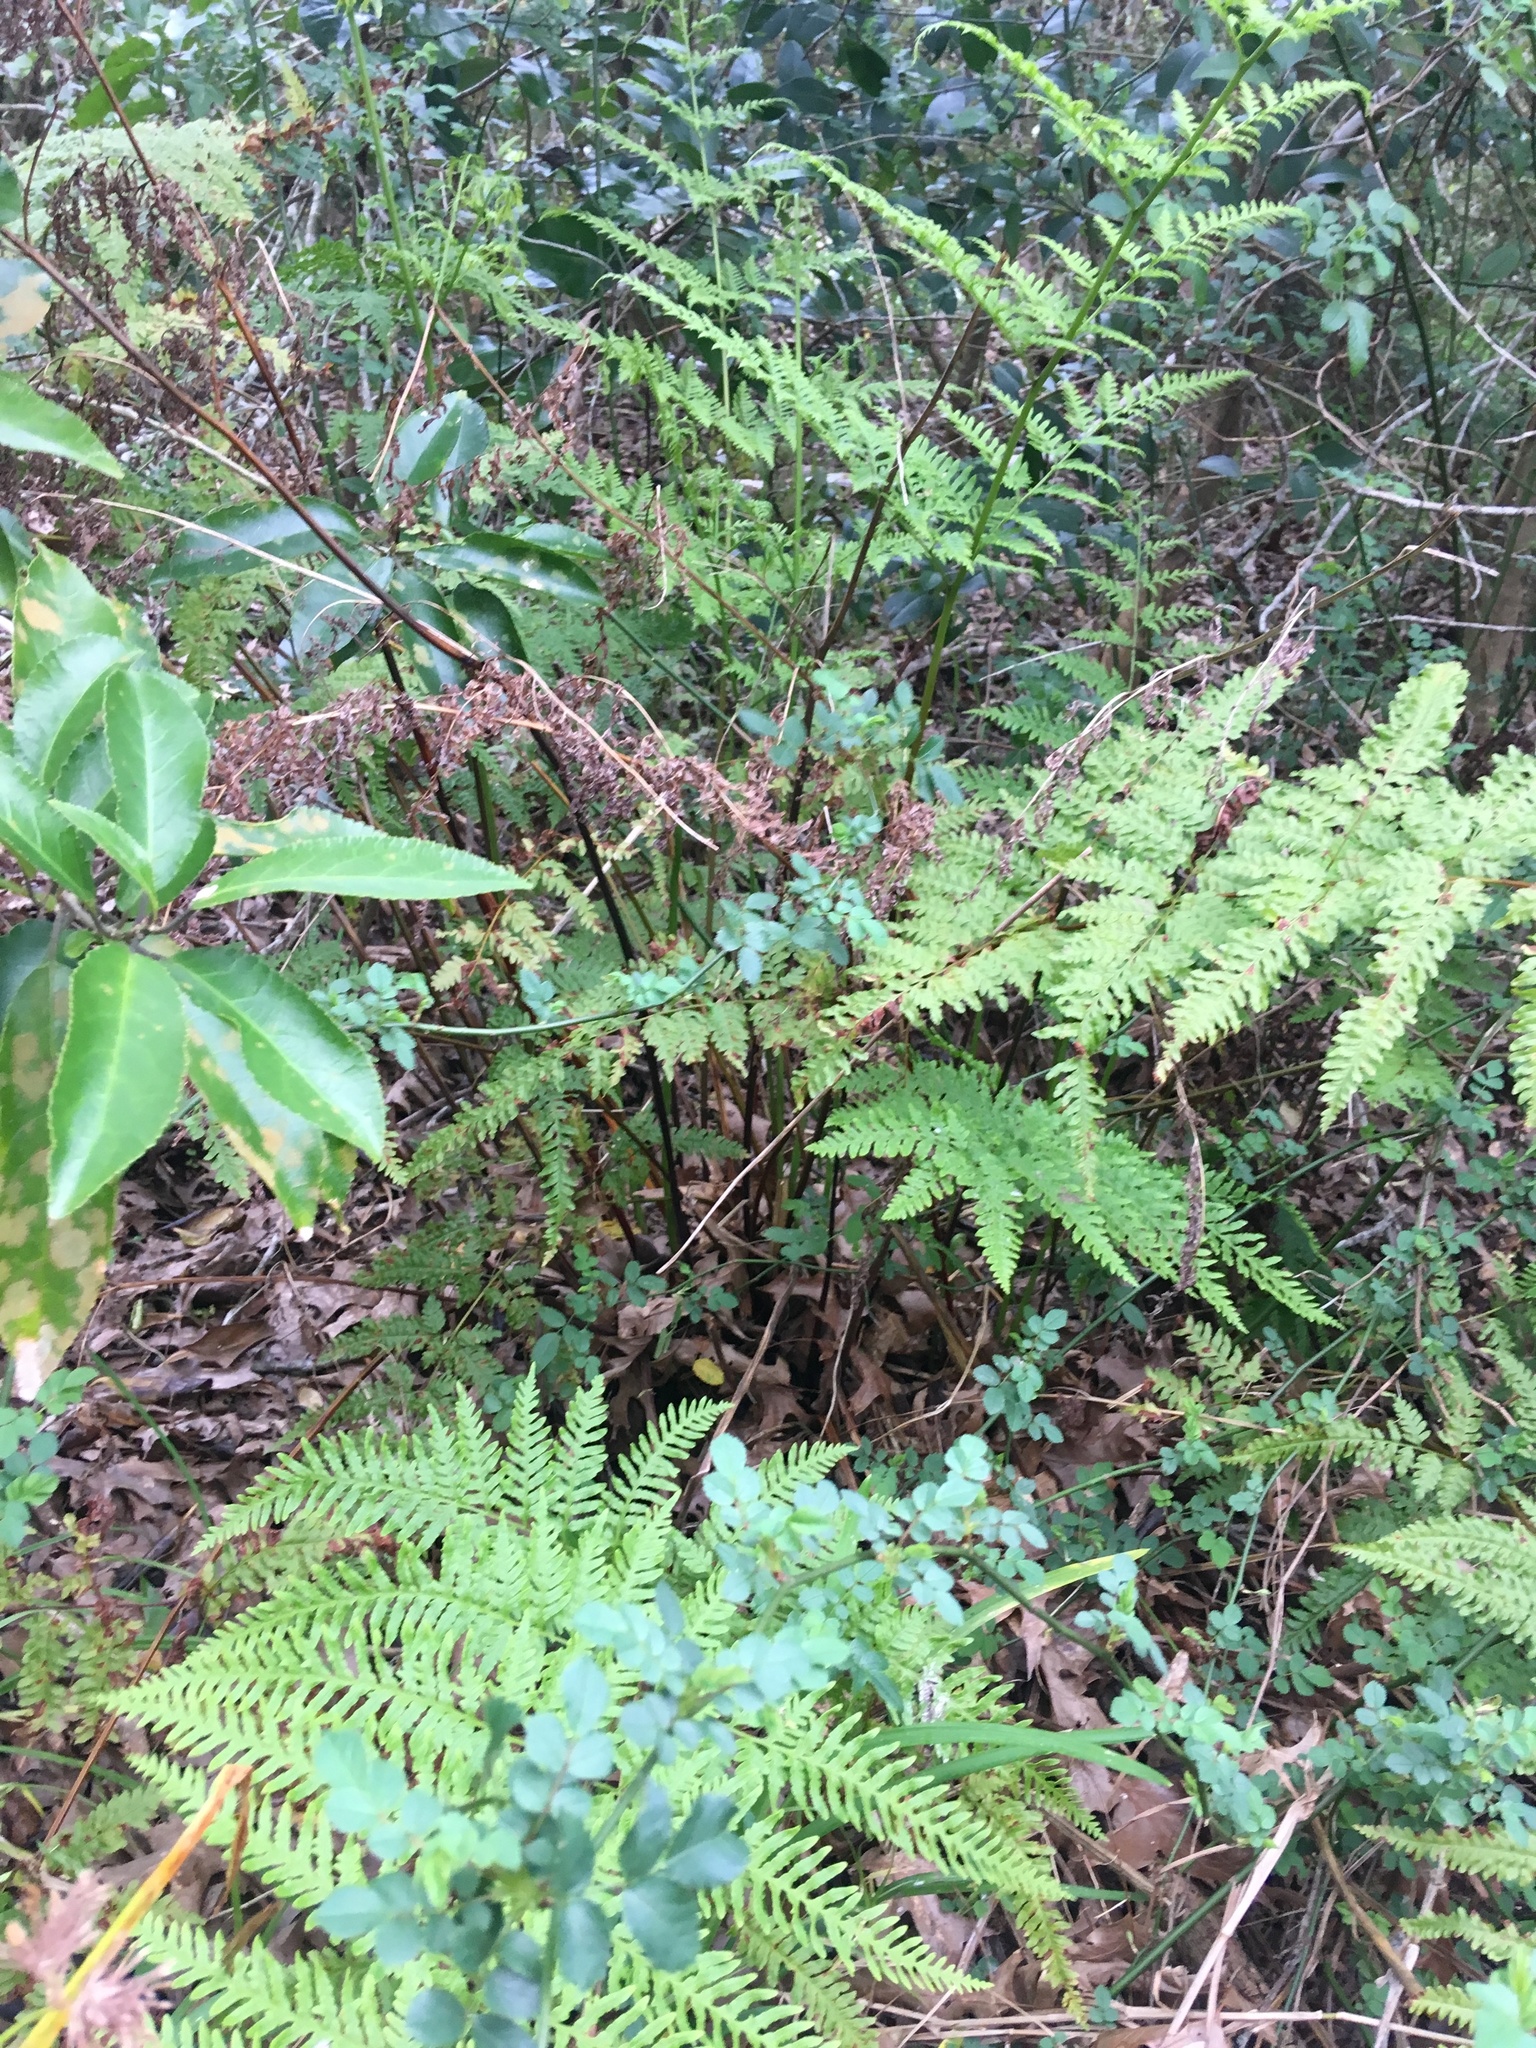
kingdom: Plantae
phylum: Tracheophyta
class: Polypodiopsida
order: Polypodiales
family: Pteridaceae
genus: Pteris
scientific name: Pteris tremula
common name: Australian brake
